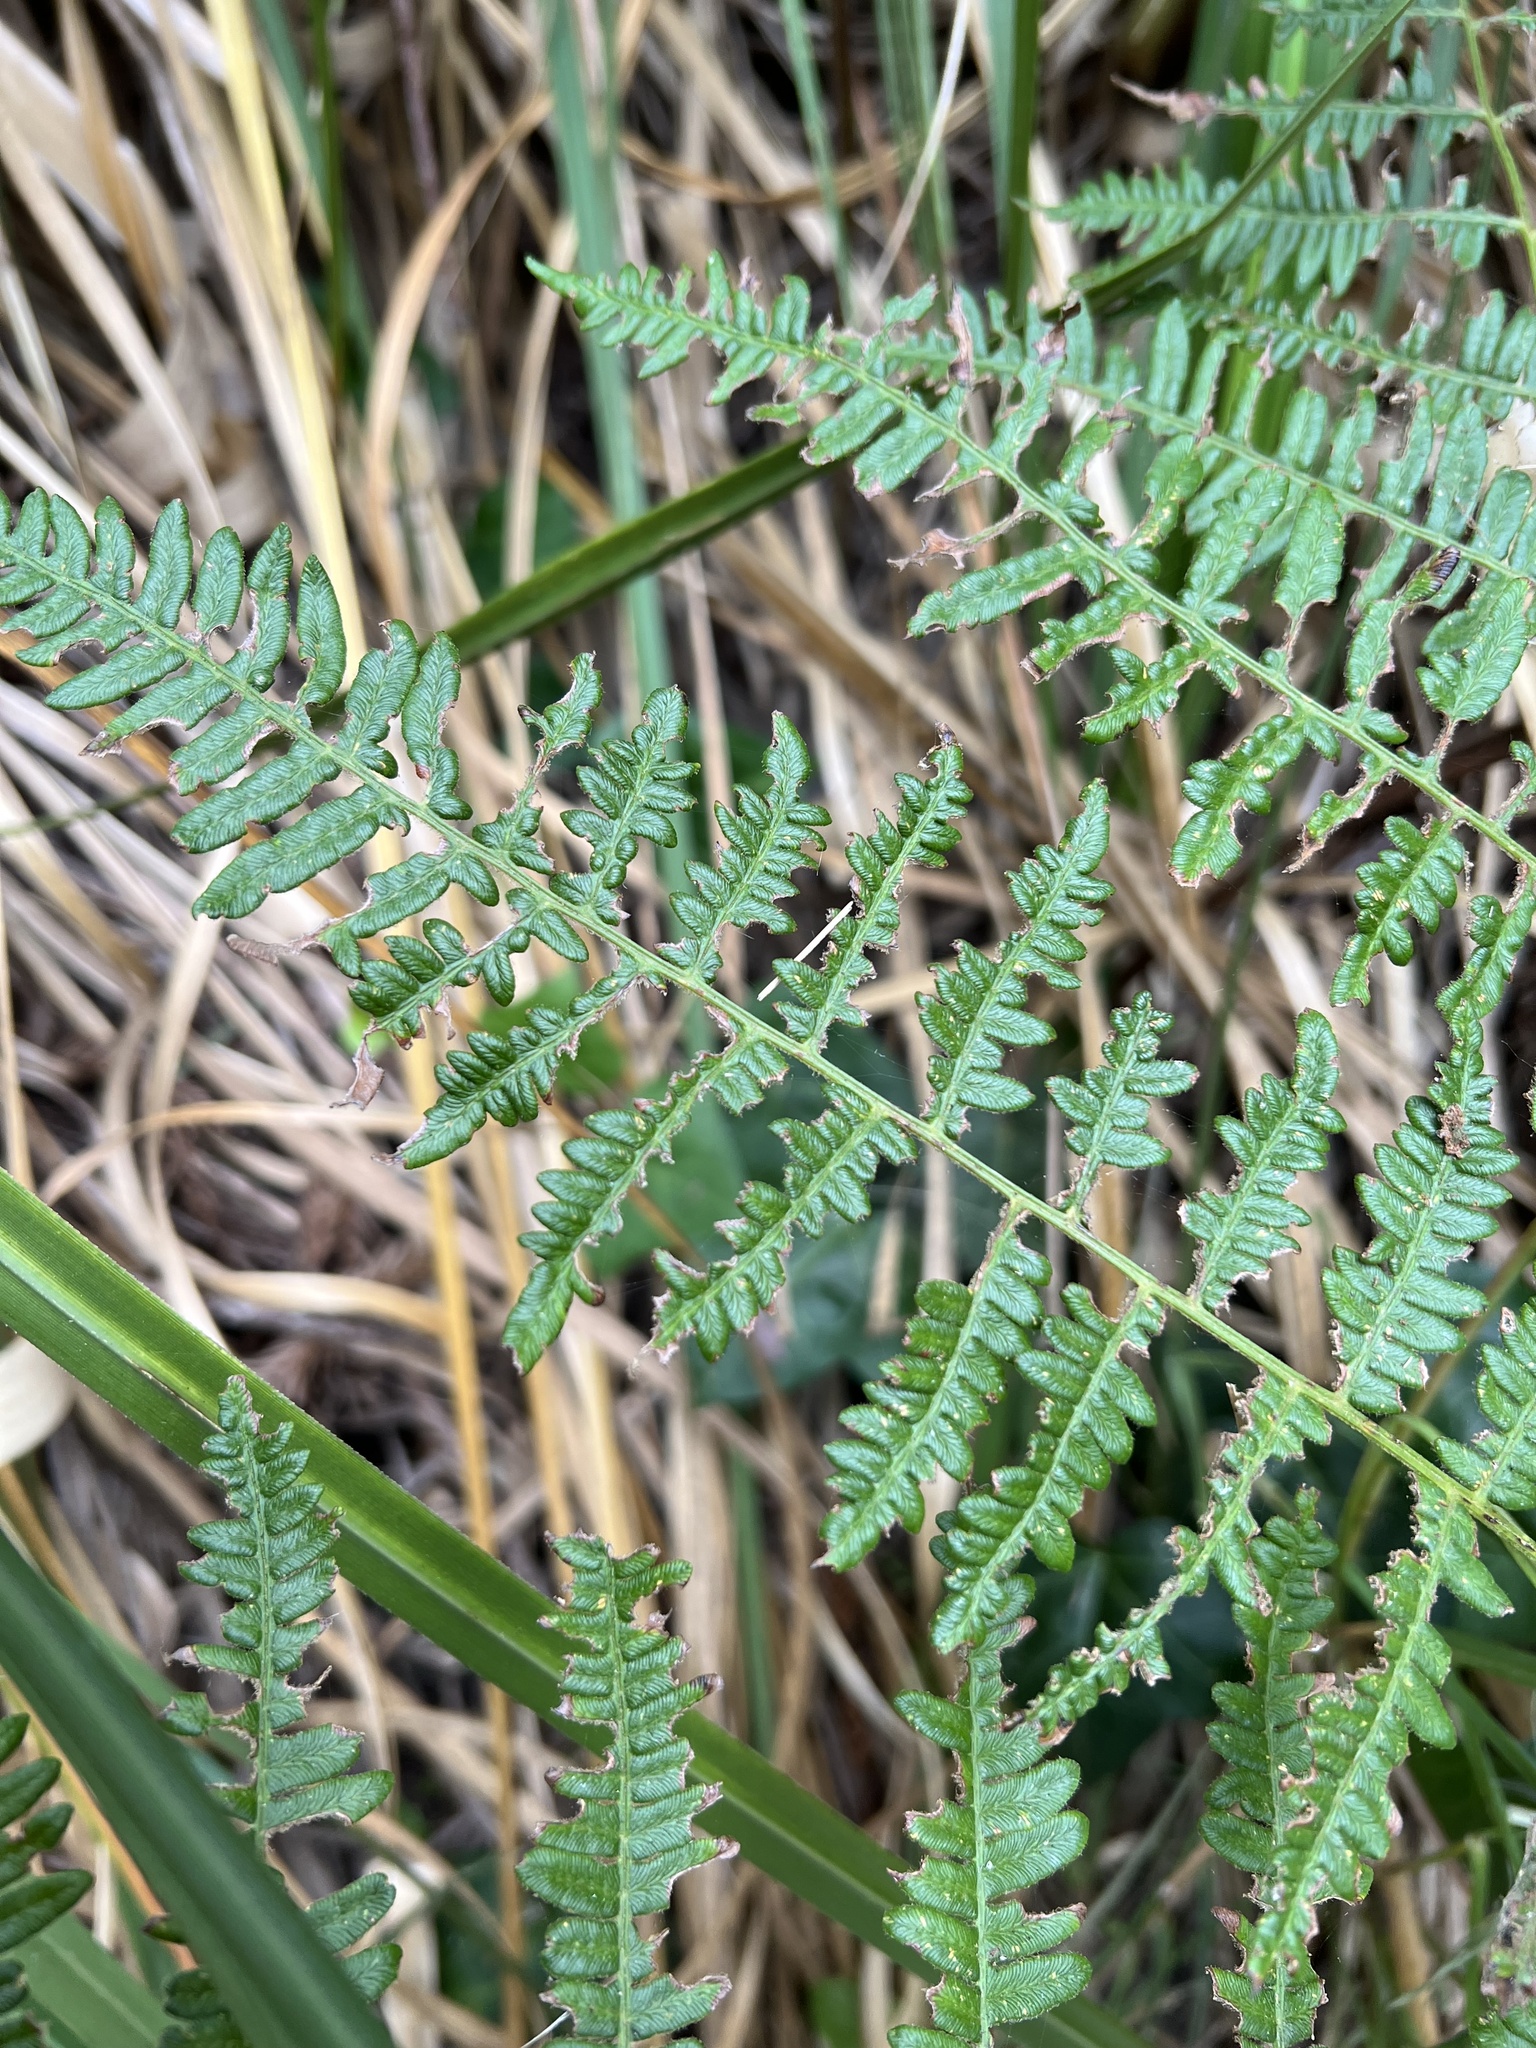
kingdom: Plantae
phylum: Tracheophyta
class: Polypodiopsida
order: Polypodiales
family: Dennstaedtiaceae
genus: Pteridium
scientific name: Pteridium aquilinum
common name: Bracken
